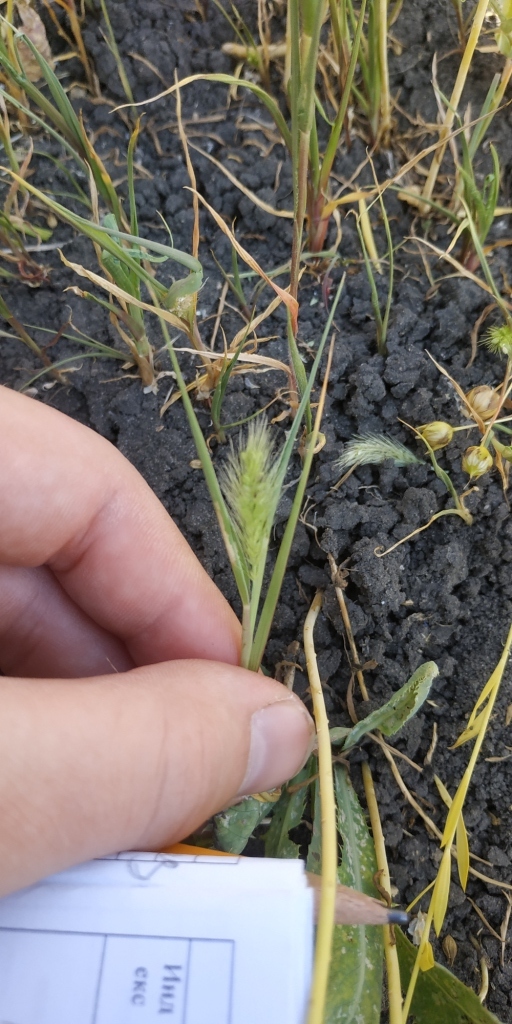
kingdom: Plantae
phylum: Tracheophyta
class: Liliopsida
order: Poales
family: Poaceae
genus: Setaria
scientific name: Setaria viridis
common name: Green bristlegrass
